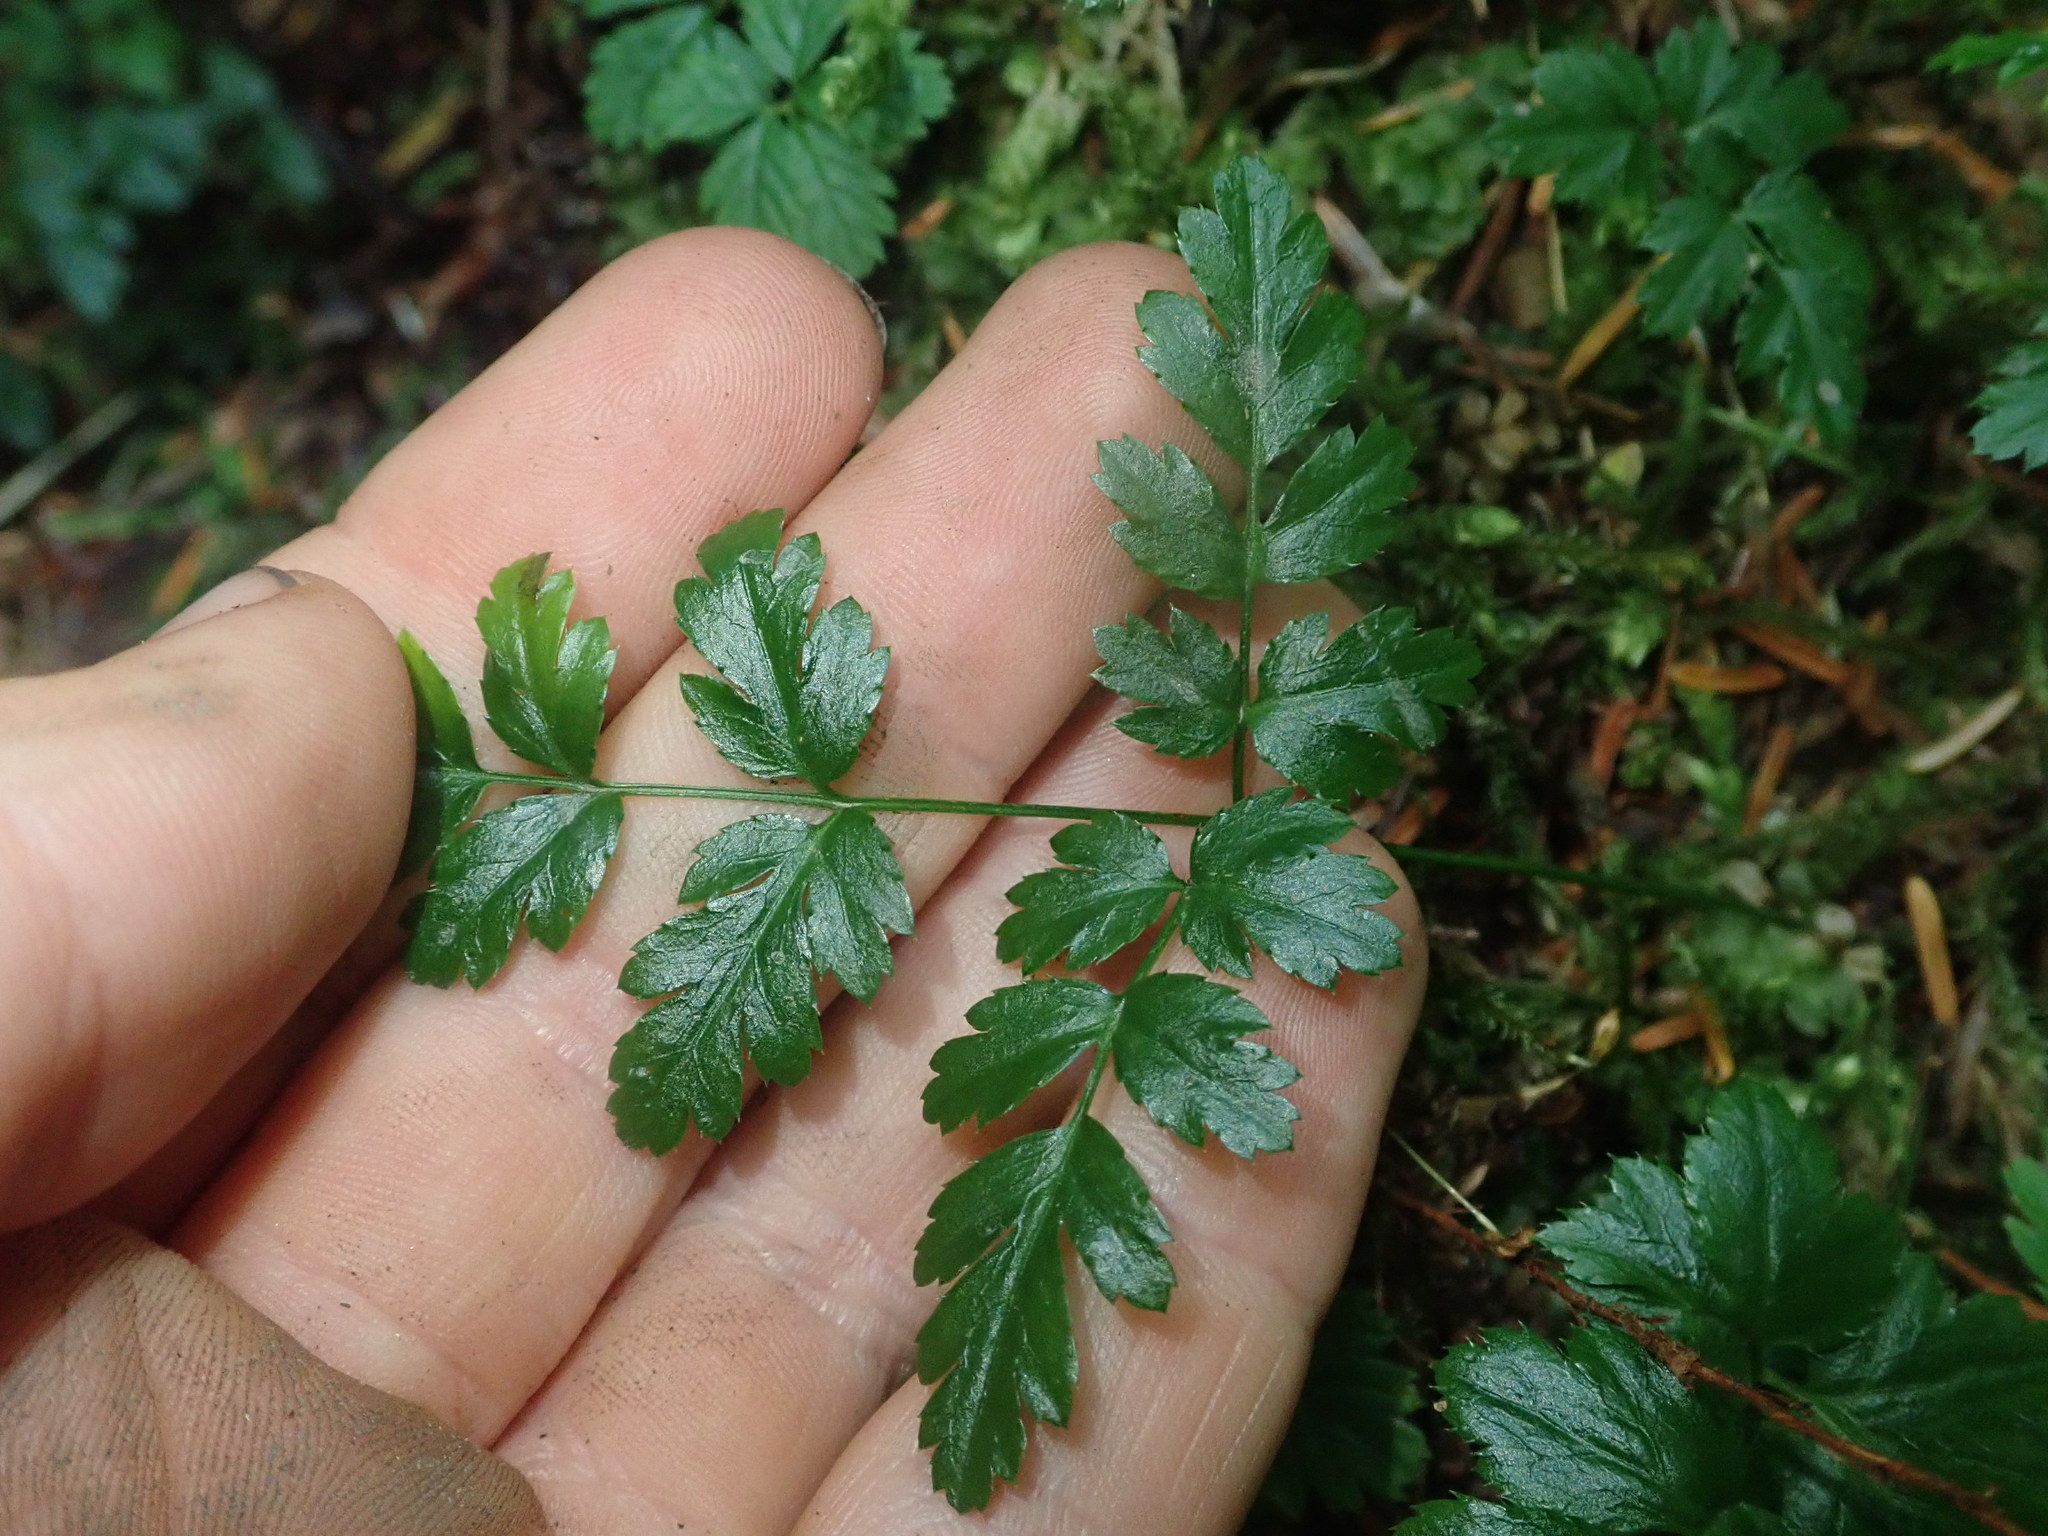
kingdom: Plantae
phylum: Tracheophyta
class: Magnoliopsida
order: Ranunculales
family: Ranunculaceae
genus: Coptis
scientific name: Coptis aspleniifolia
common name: Fern-leaved goldthread
